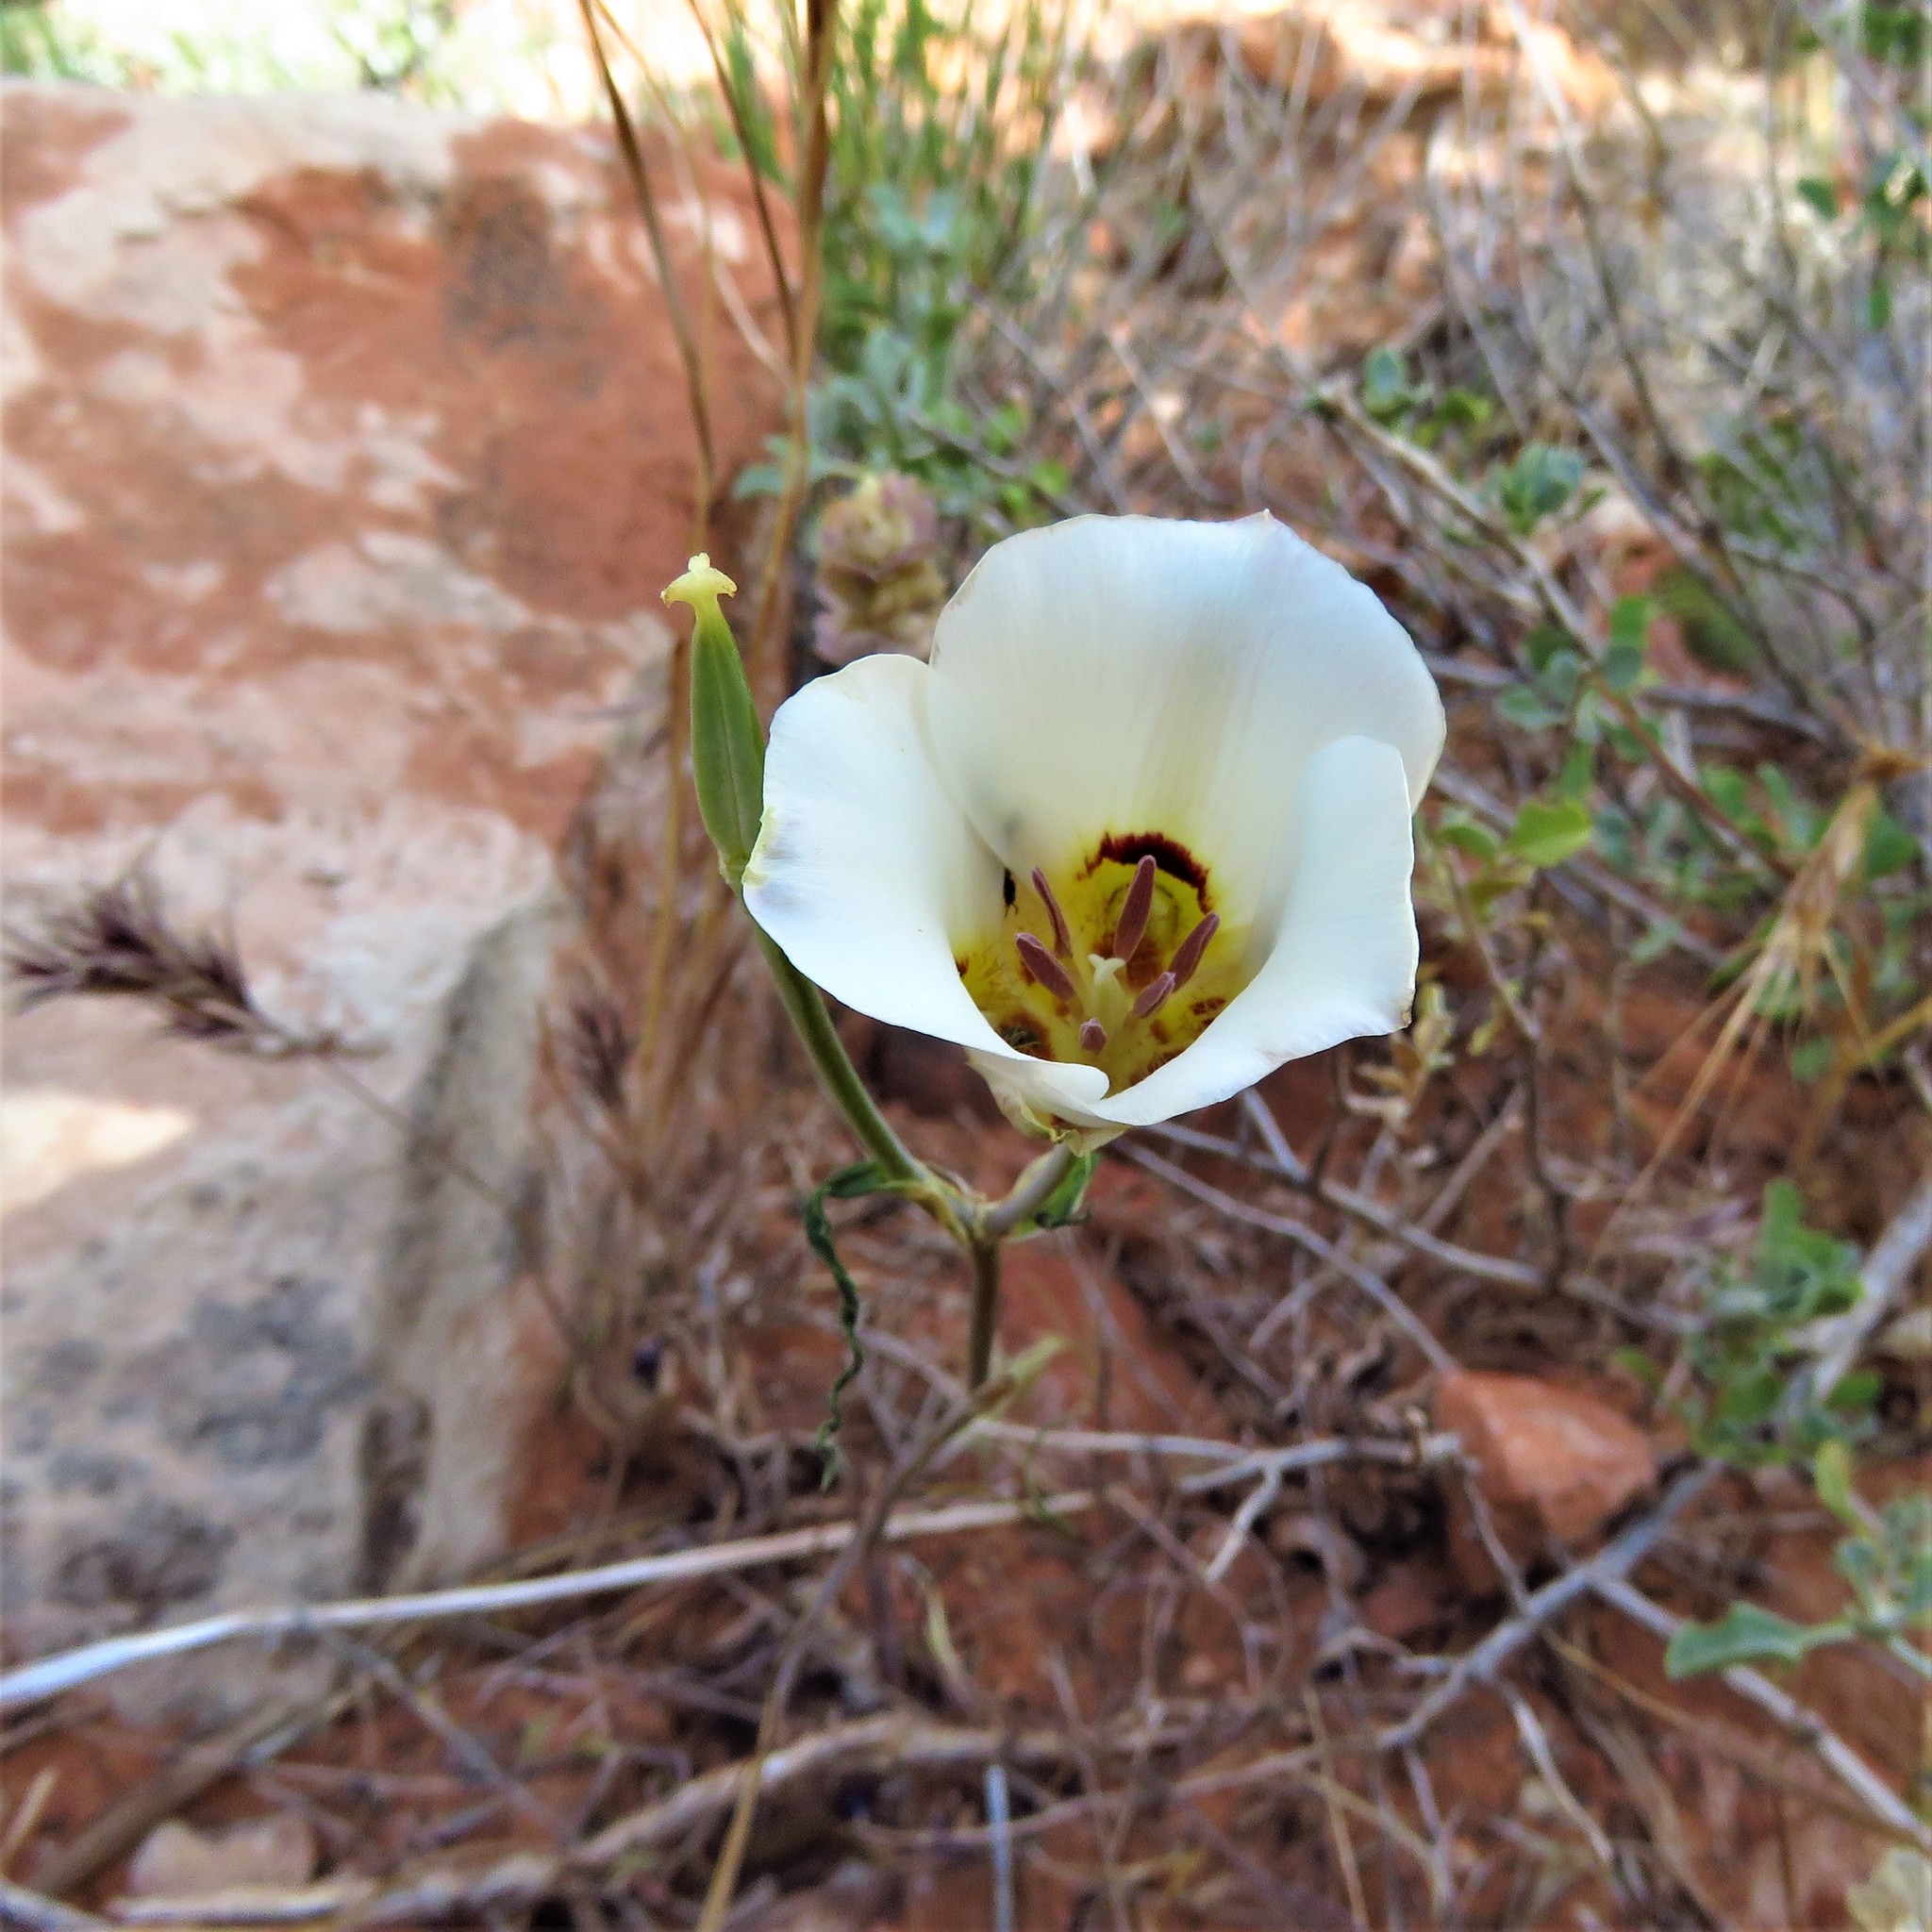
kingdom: Plantae
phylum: Tracheophyta
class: Liliopsida
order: Liliales
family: Liliaceae
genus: Calochortus
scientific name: Calochortus nuttallii
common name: Sego-lily
